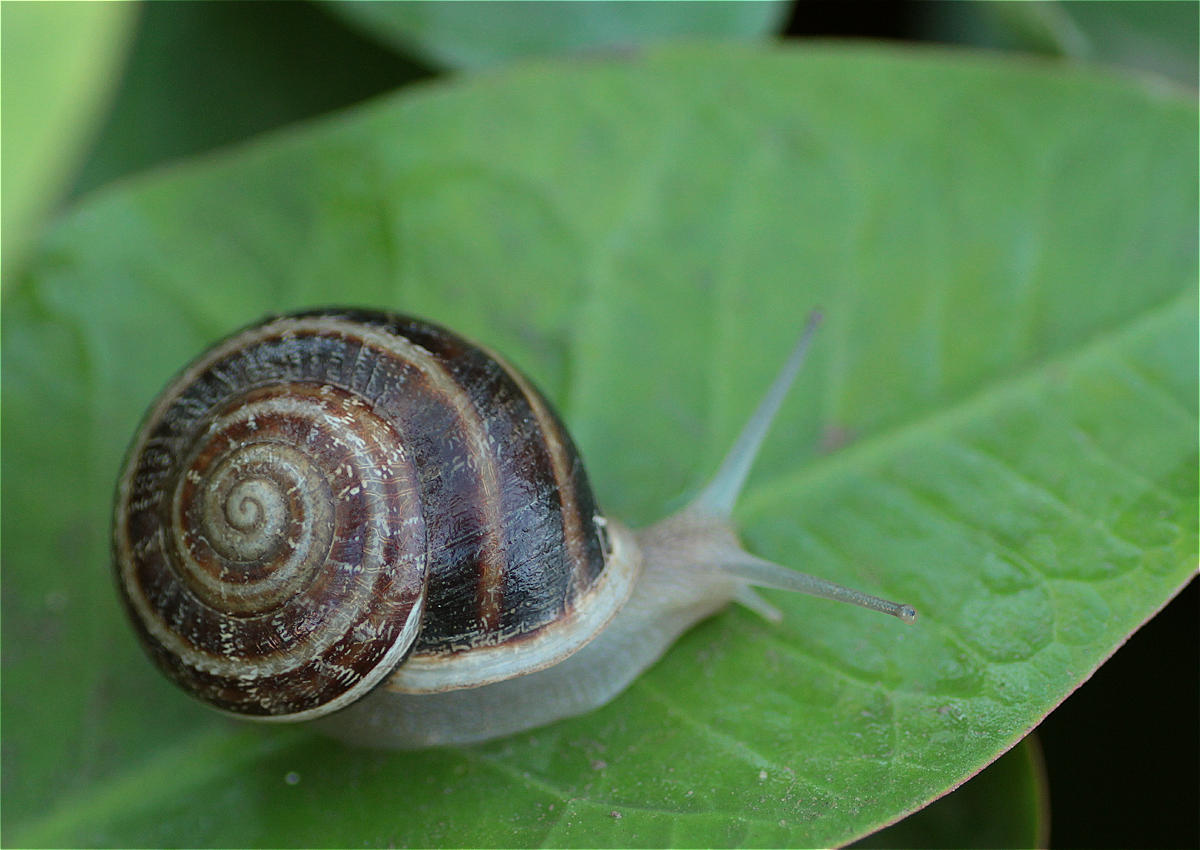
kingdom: Animalia
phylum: Mollusca
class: Gastropoda
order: Stylommatophora
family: Helicidae
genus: Eobania
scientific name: Eobania vermiculata
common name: Chocolateband snail
